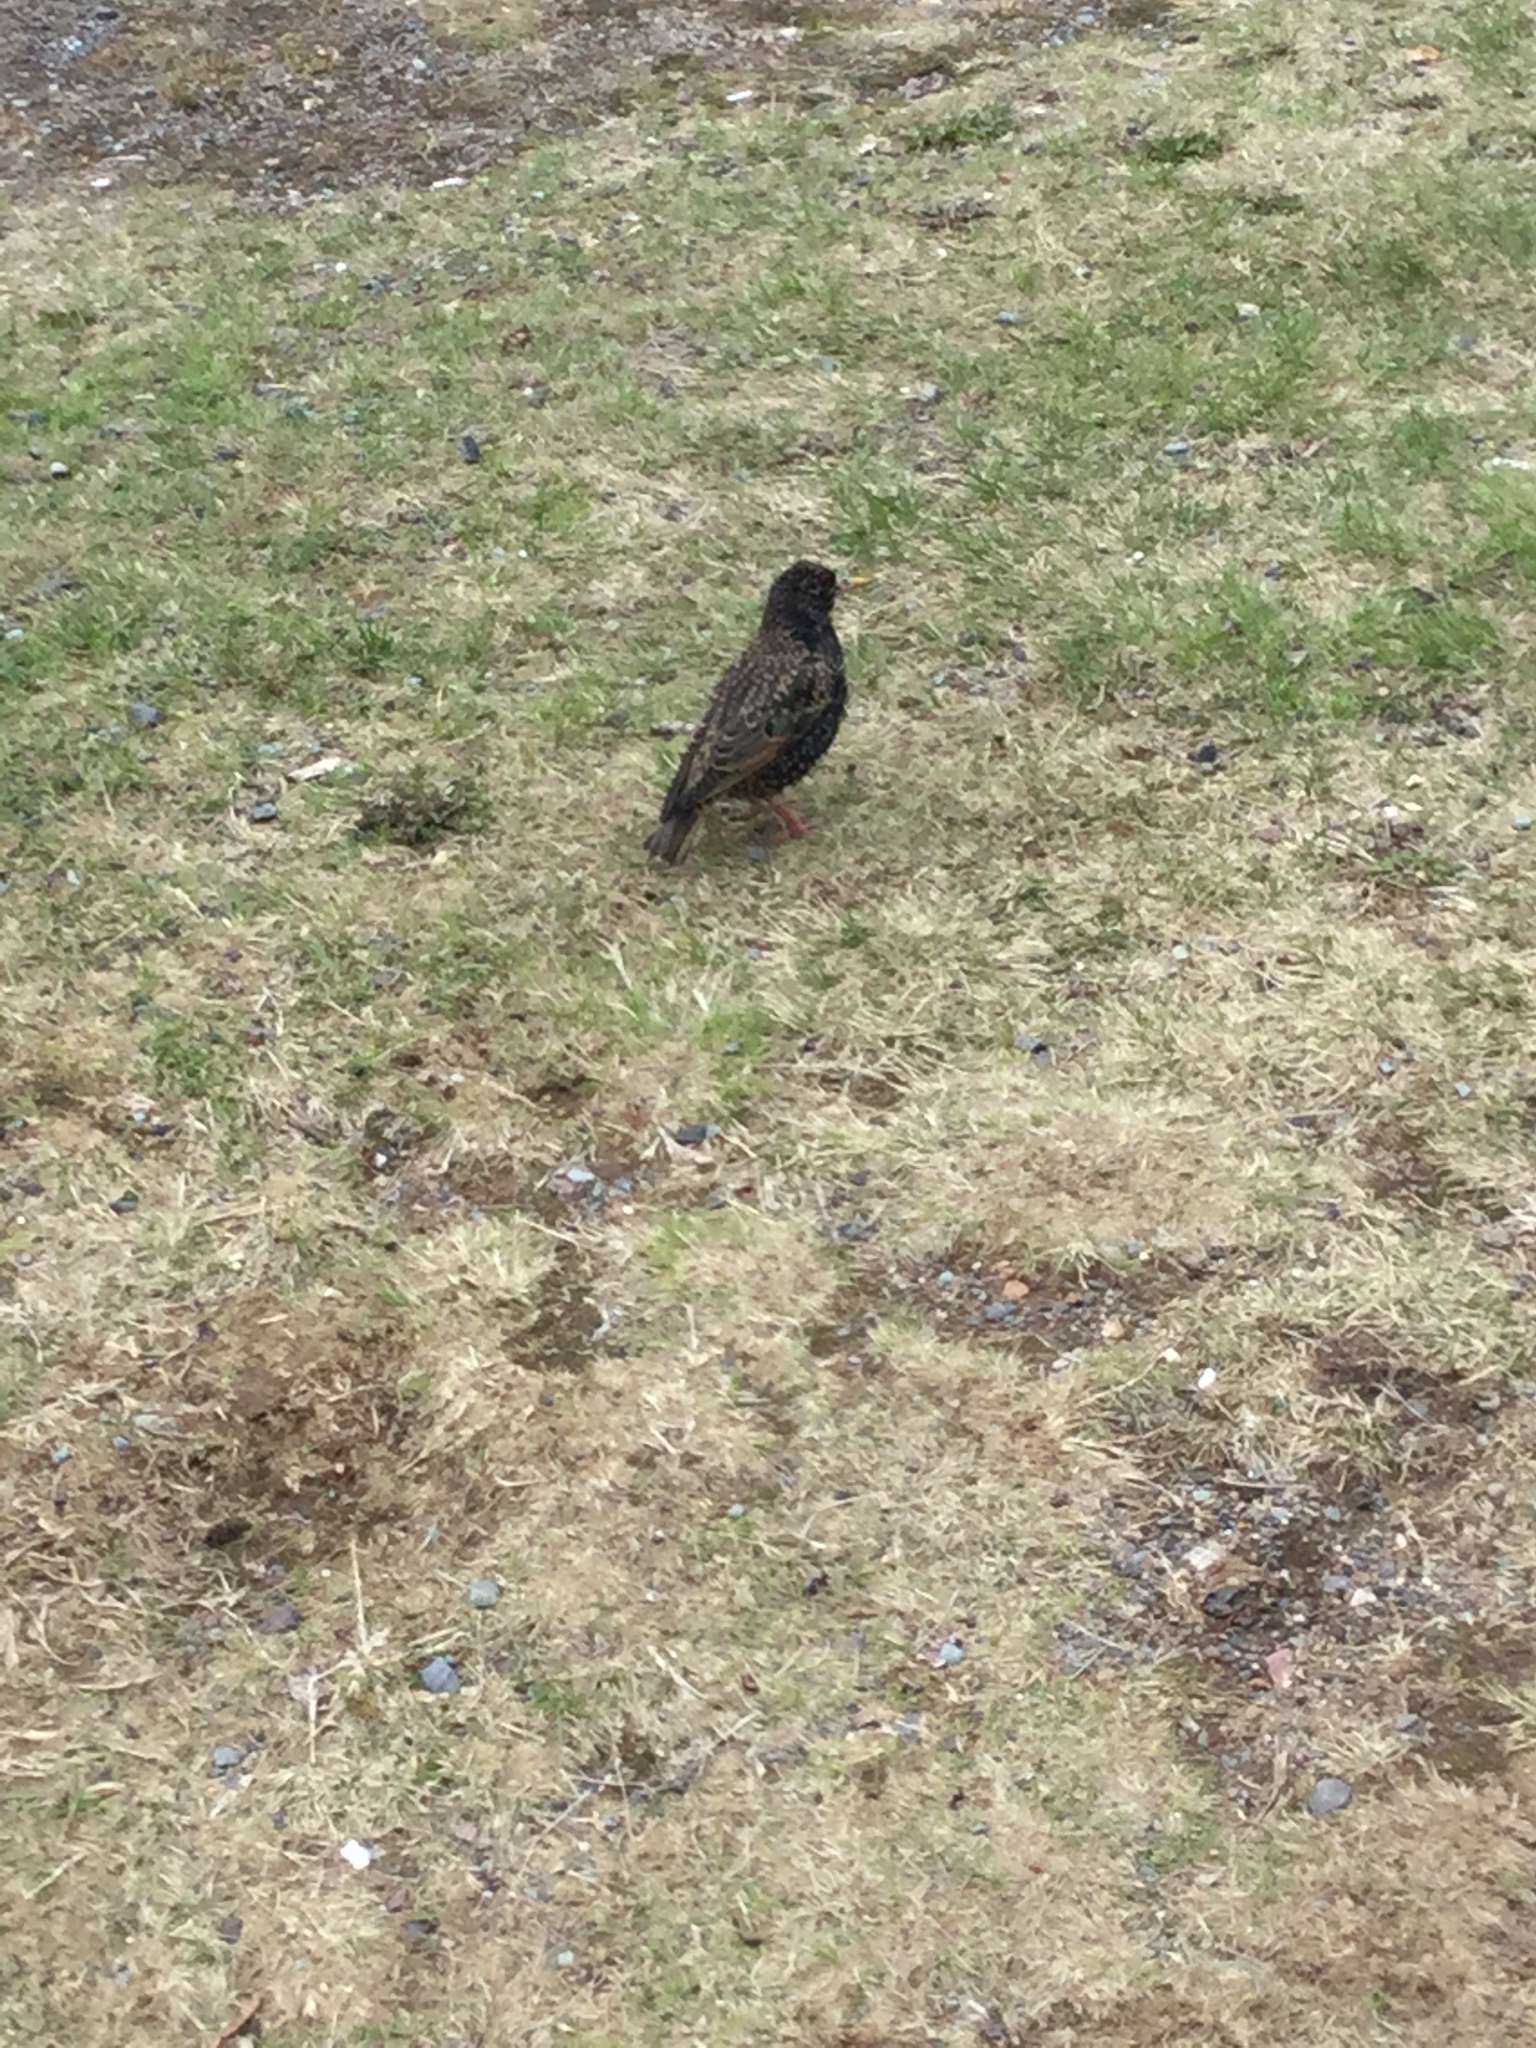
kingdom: Animalia
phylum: Chordata
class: Aves
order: Passeriformes
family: Sturnidae
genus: Sturnus
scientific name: Sturnus vulgaris
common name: Common starling
